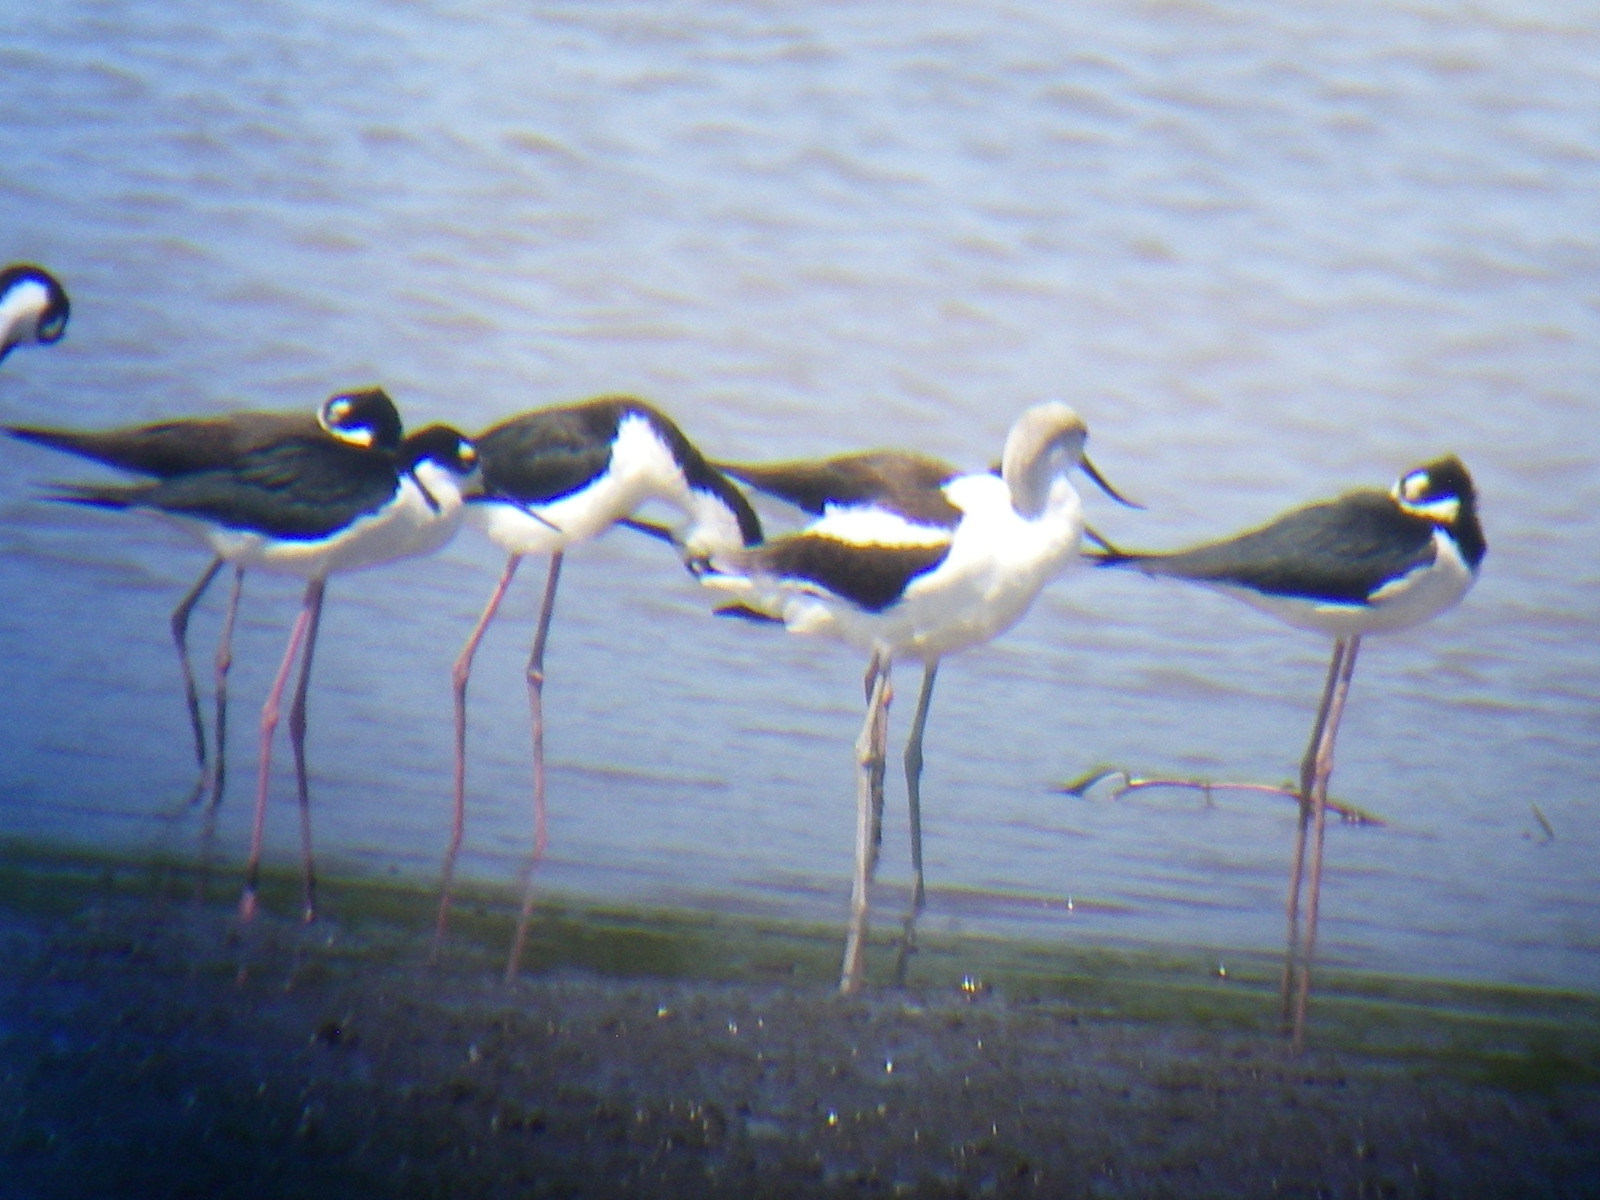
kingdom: Animalia
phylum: Chordata
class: Aves
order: Charadriiformes
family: Recurvirostridae
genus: Himantopus
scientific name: Himantopus mexicanus
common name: Black-necked stilt
